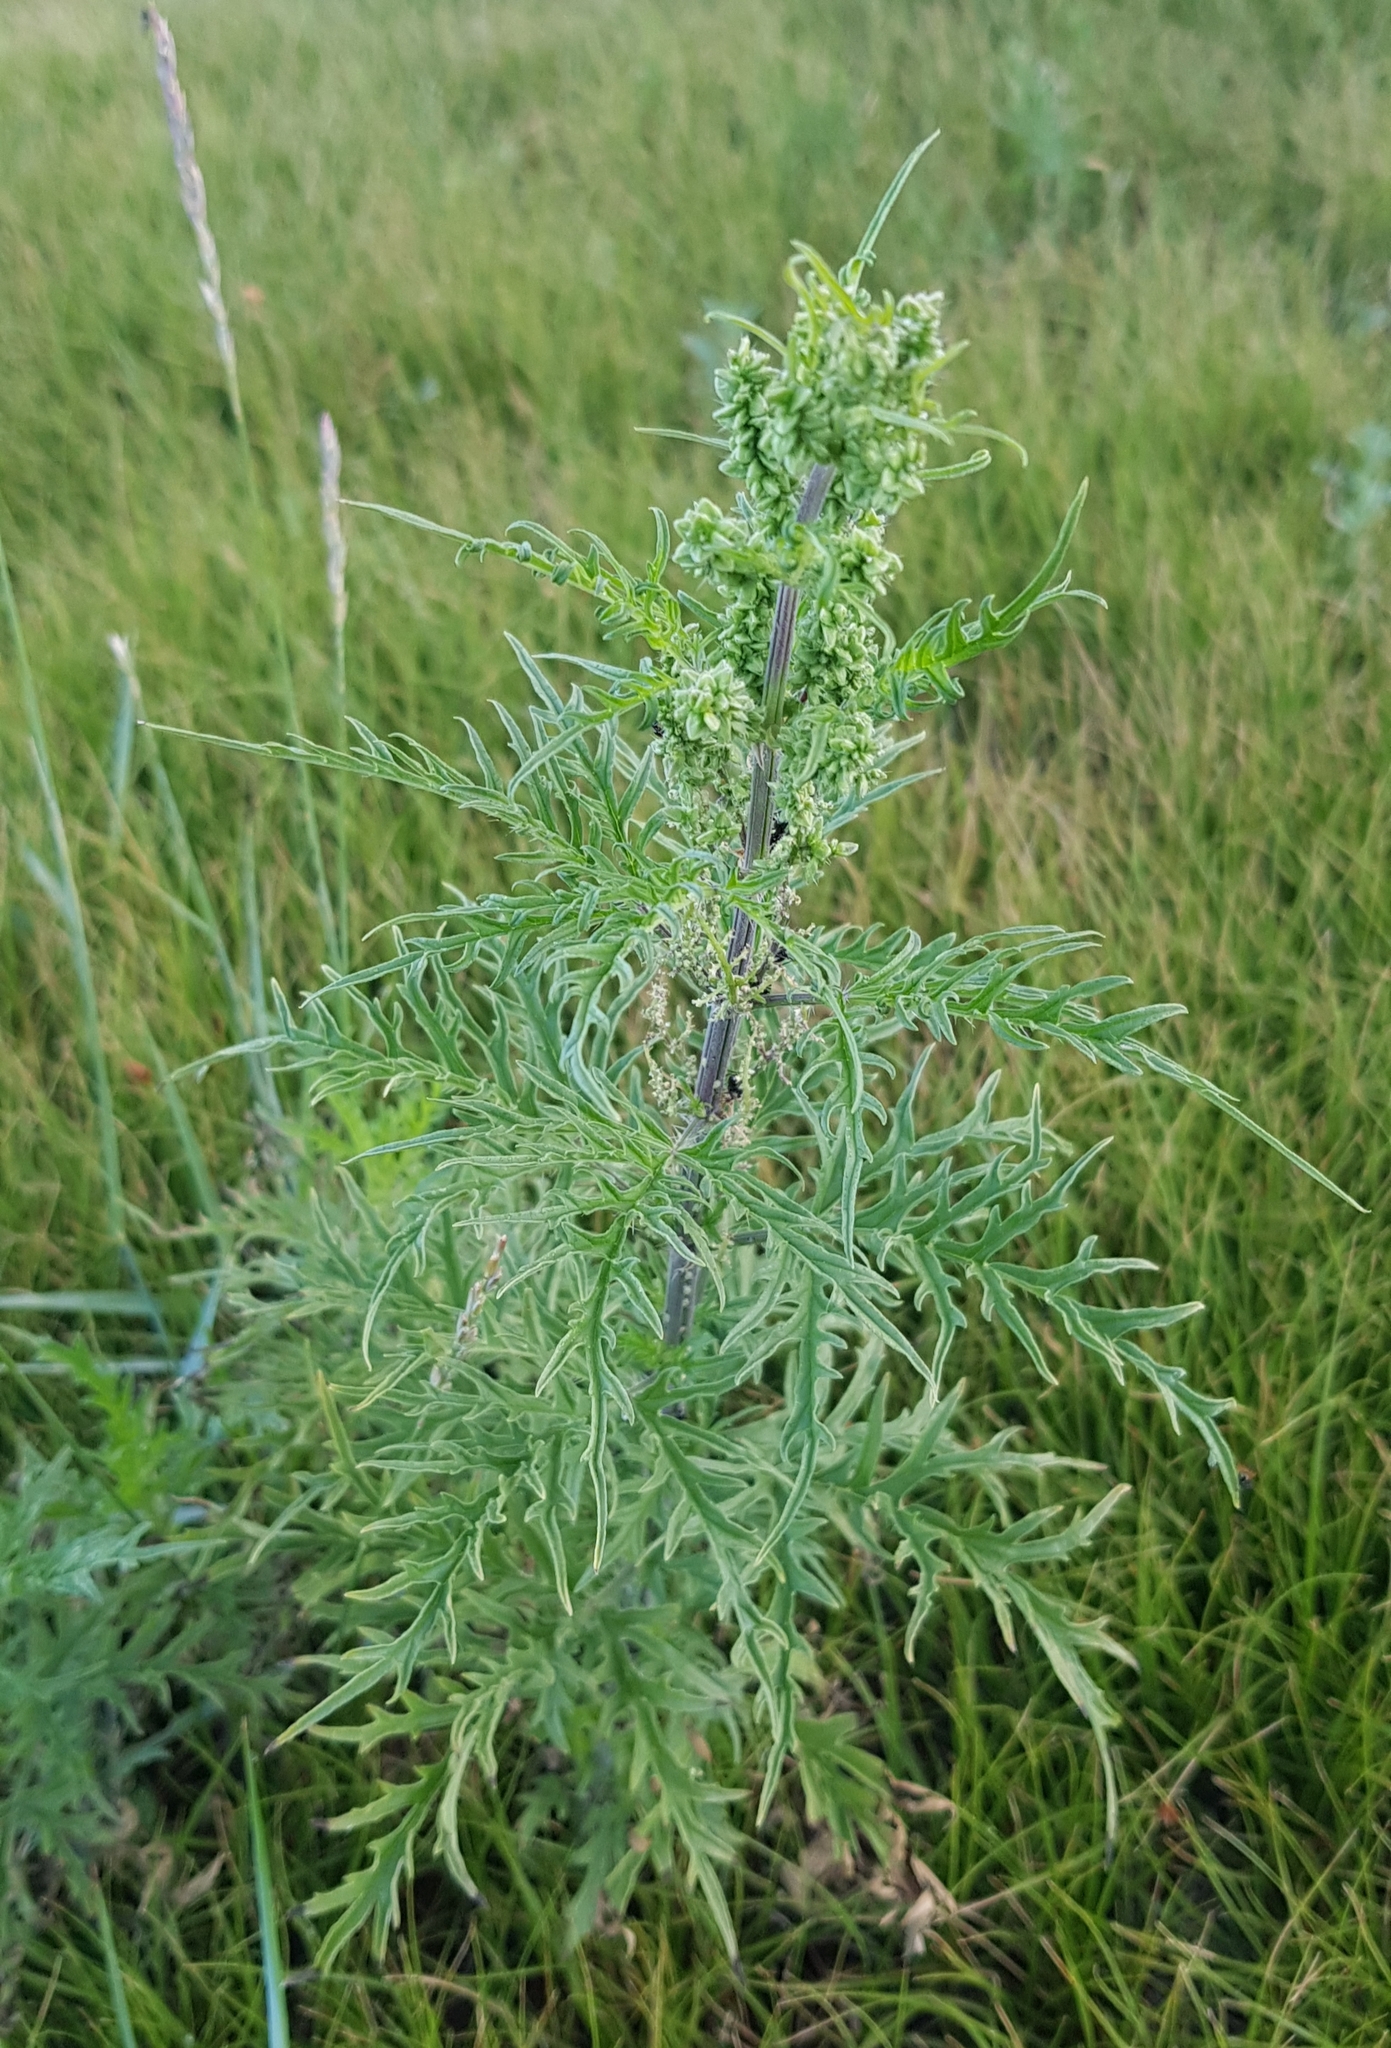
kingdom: Plantae
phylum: Tracheophyta
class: Magnoliopsida
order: Rosales
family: Urticaceae
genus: Urtica
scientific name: Urtica cannabina
